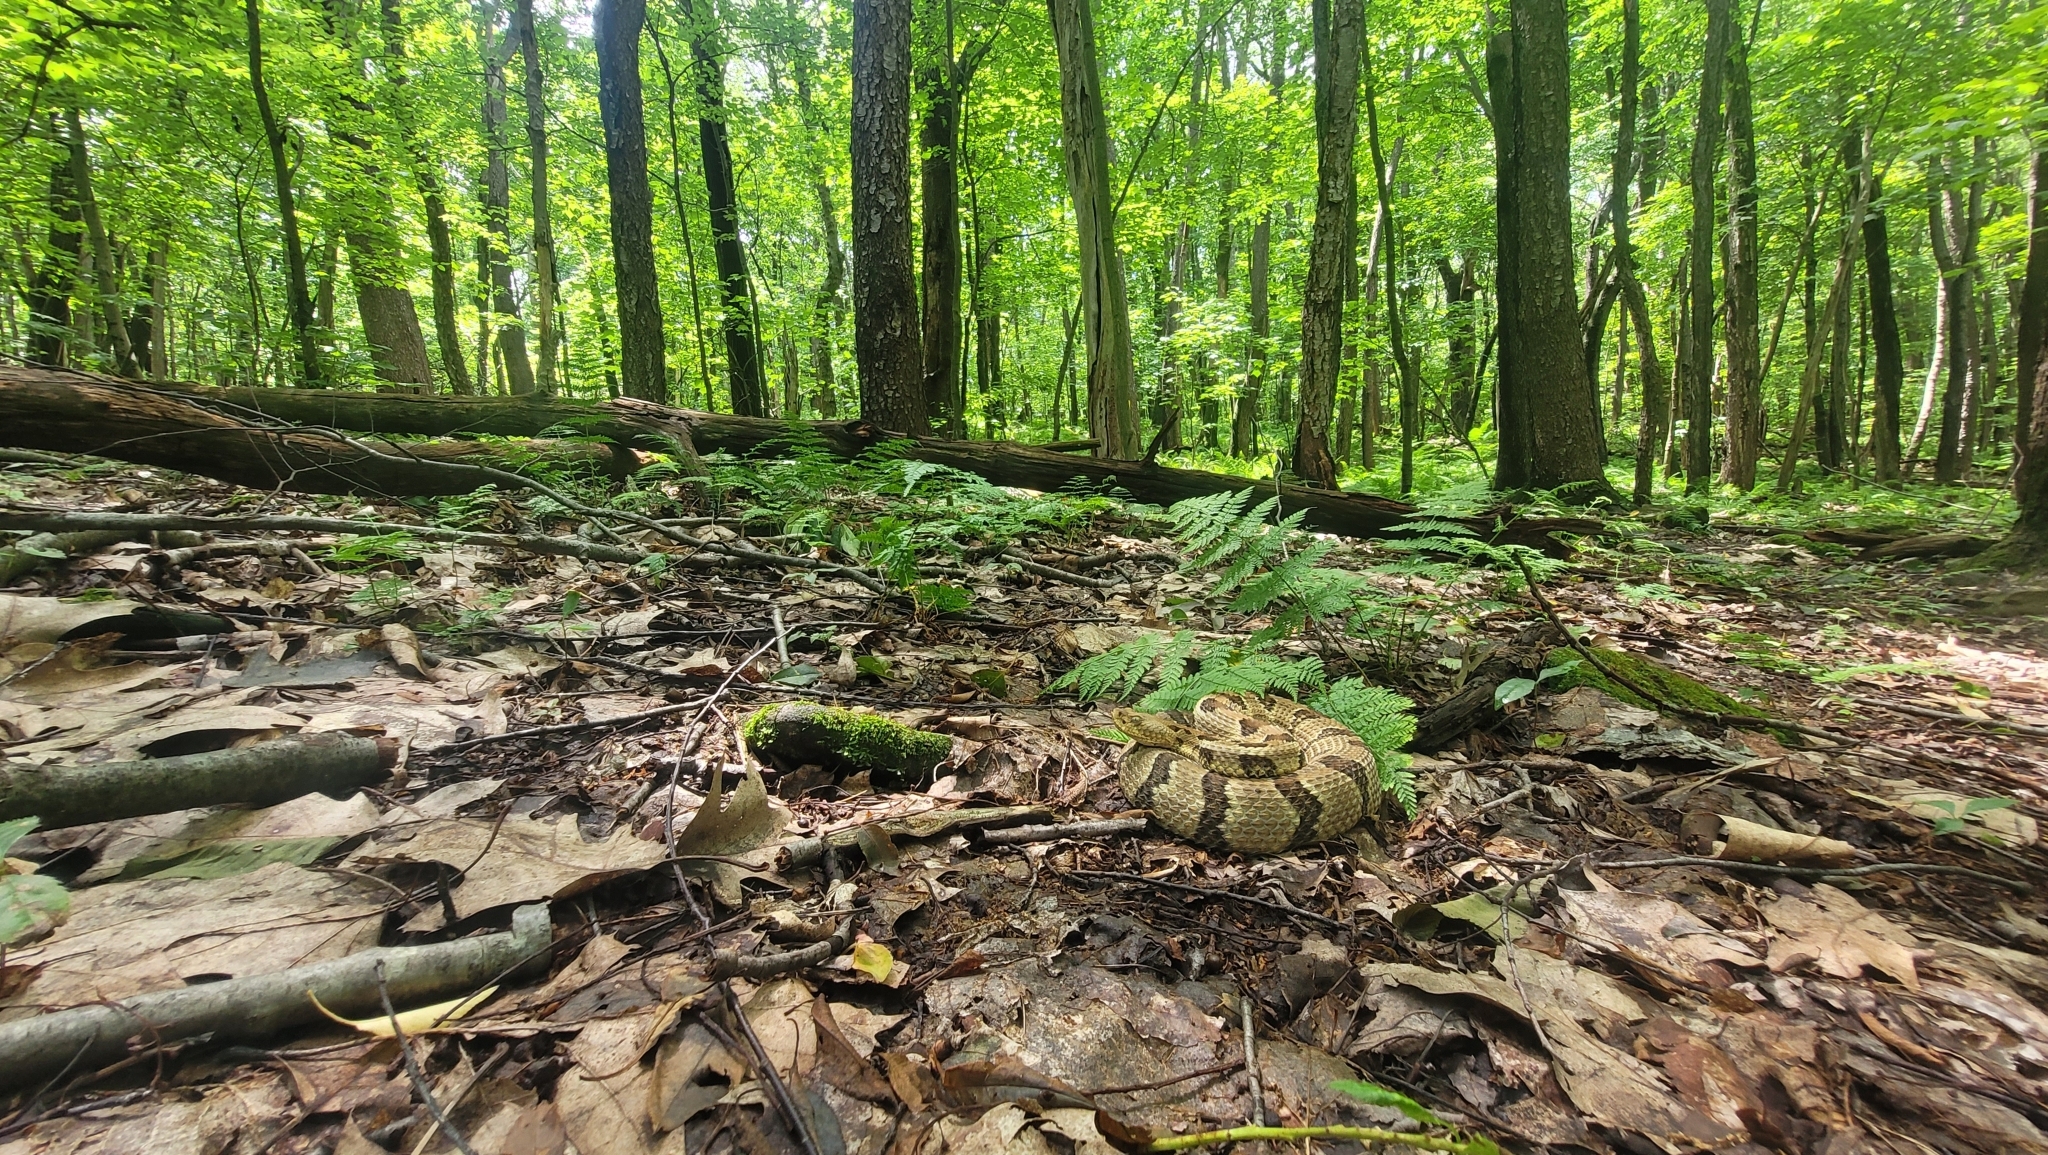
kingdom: Animalia
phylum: Chordata
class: Squamata
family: Viperidae
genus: Crotalus
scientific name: Crotalus horridus
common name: Timber rattlesnake
